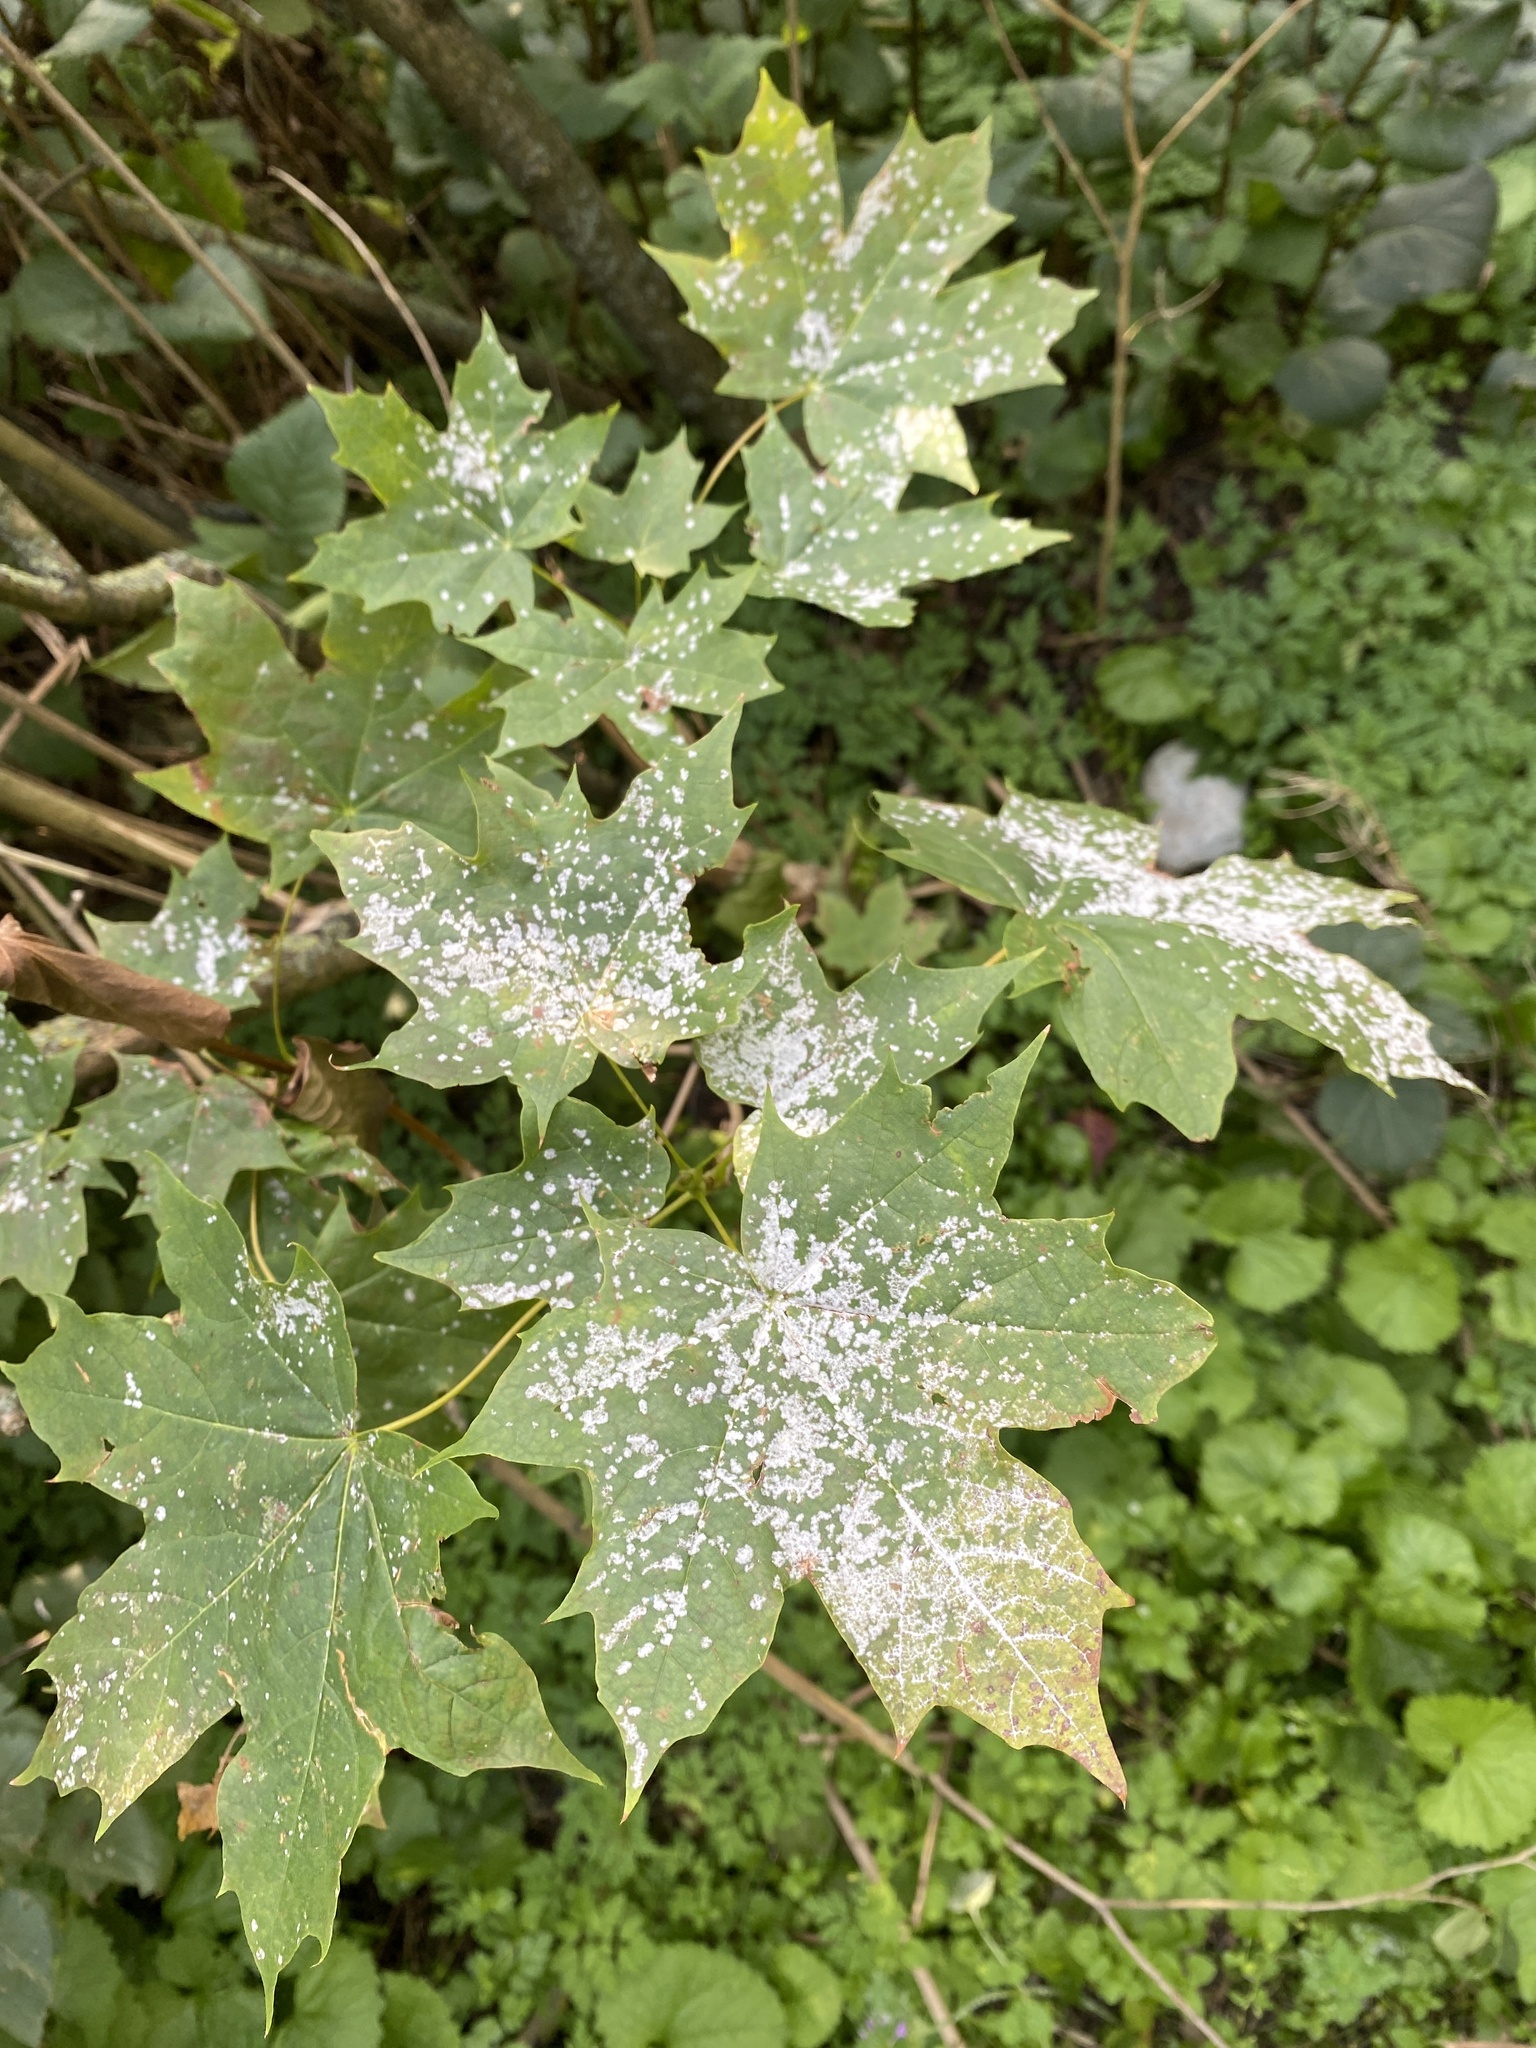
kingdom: Fungi
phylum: Ascomycota
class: Leotiomycetes
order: Helotiales
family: Erysiphaceae
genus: Sawadaea
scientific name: Sawadaea tulasnei
